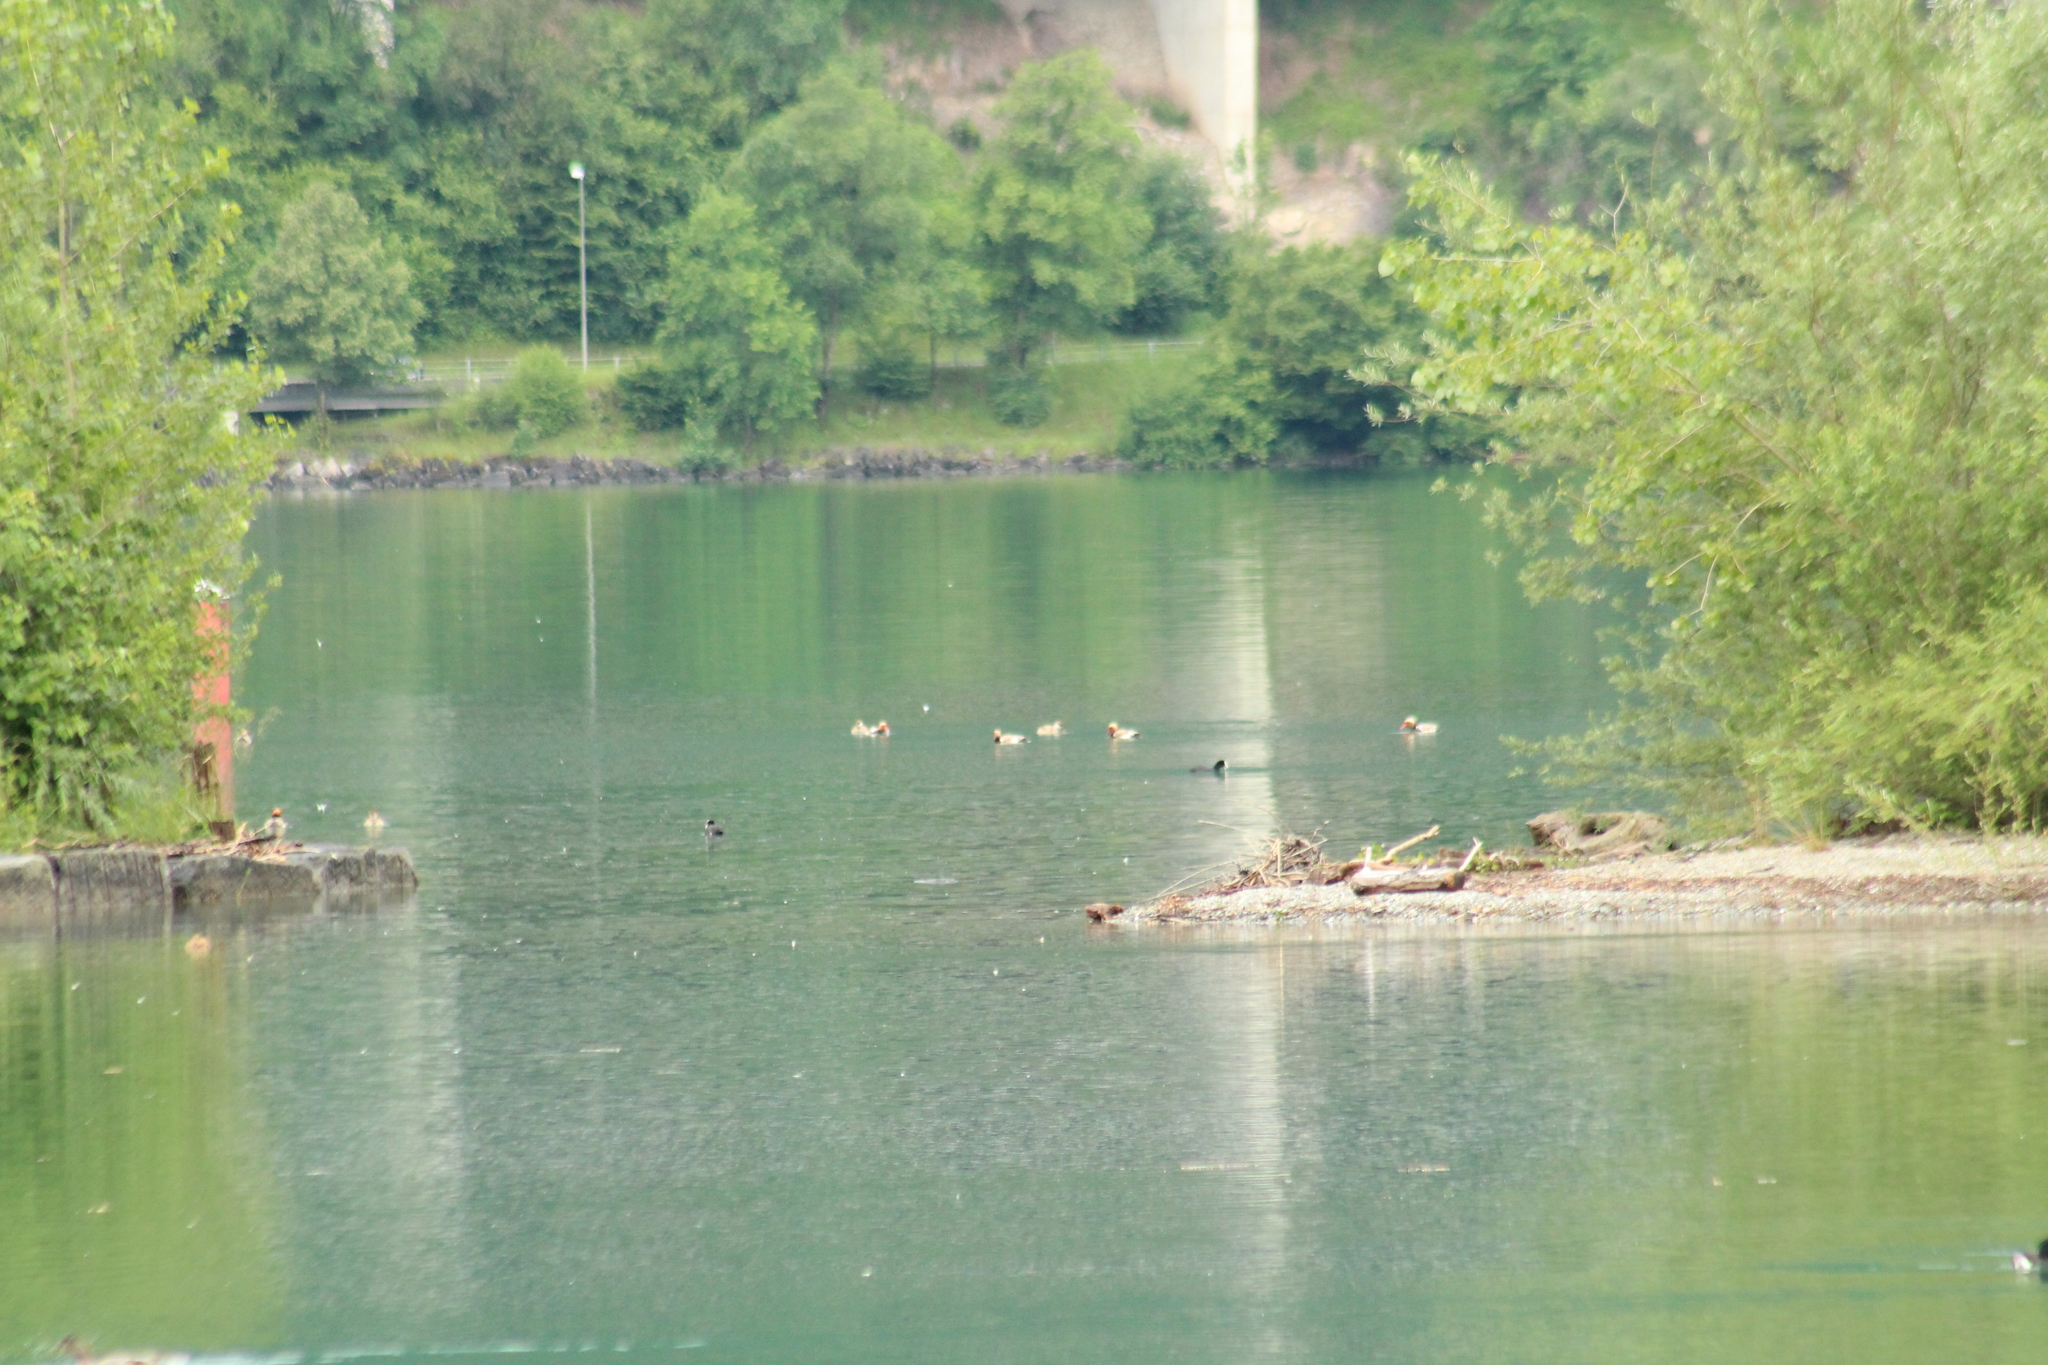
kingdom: Animalia
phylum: Chordata
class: Aves
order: Anseriformes
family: Anatidae
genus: Netta
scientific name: Netta rufina
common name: Red-crested pochard
